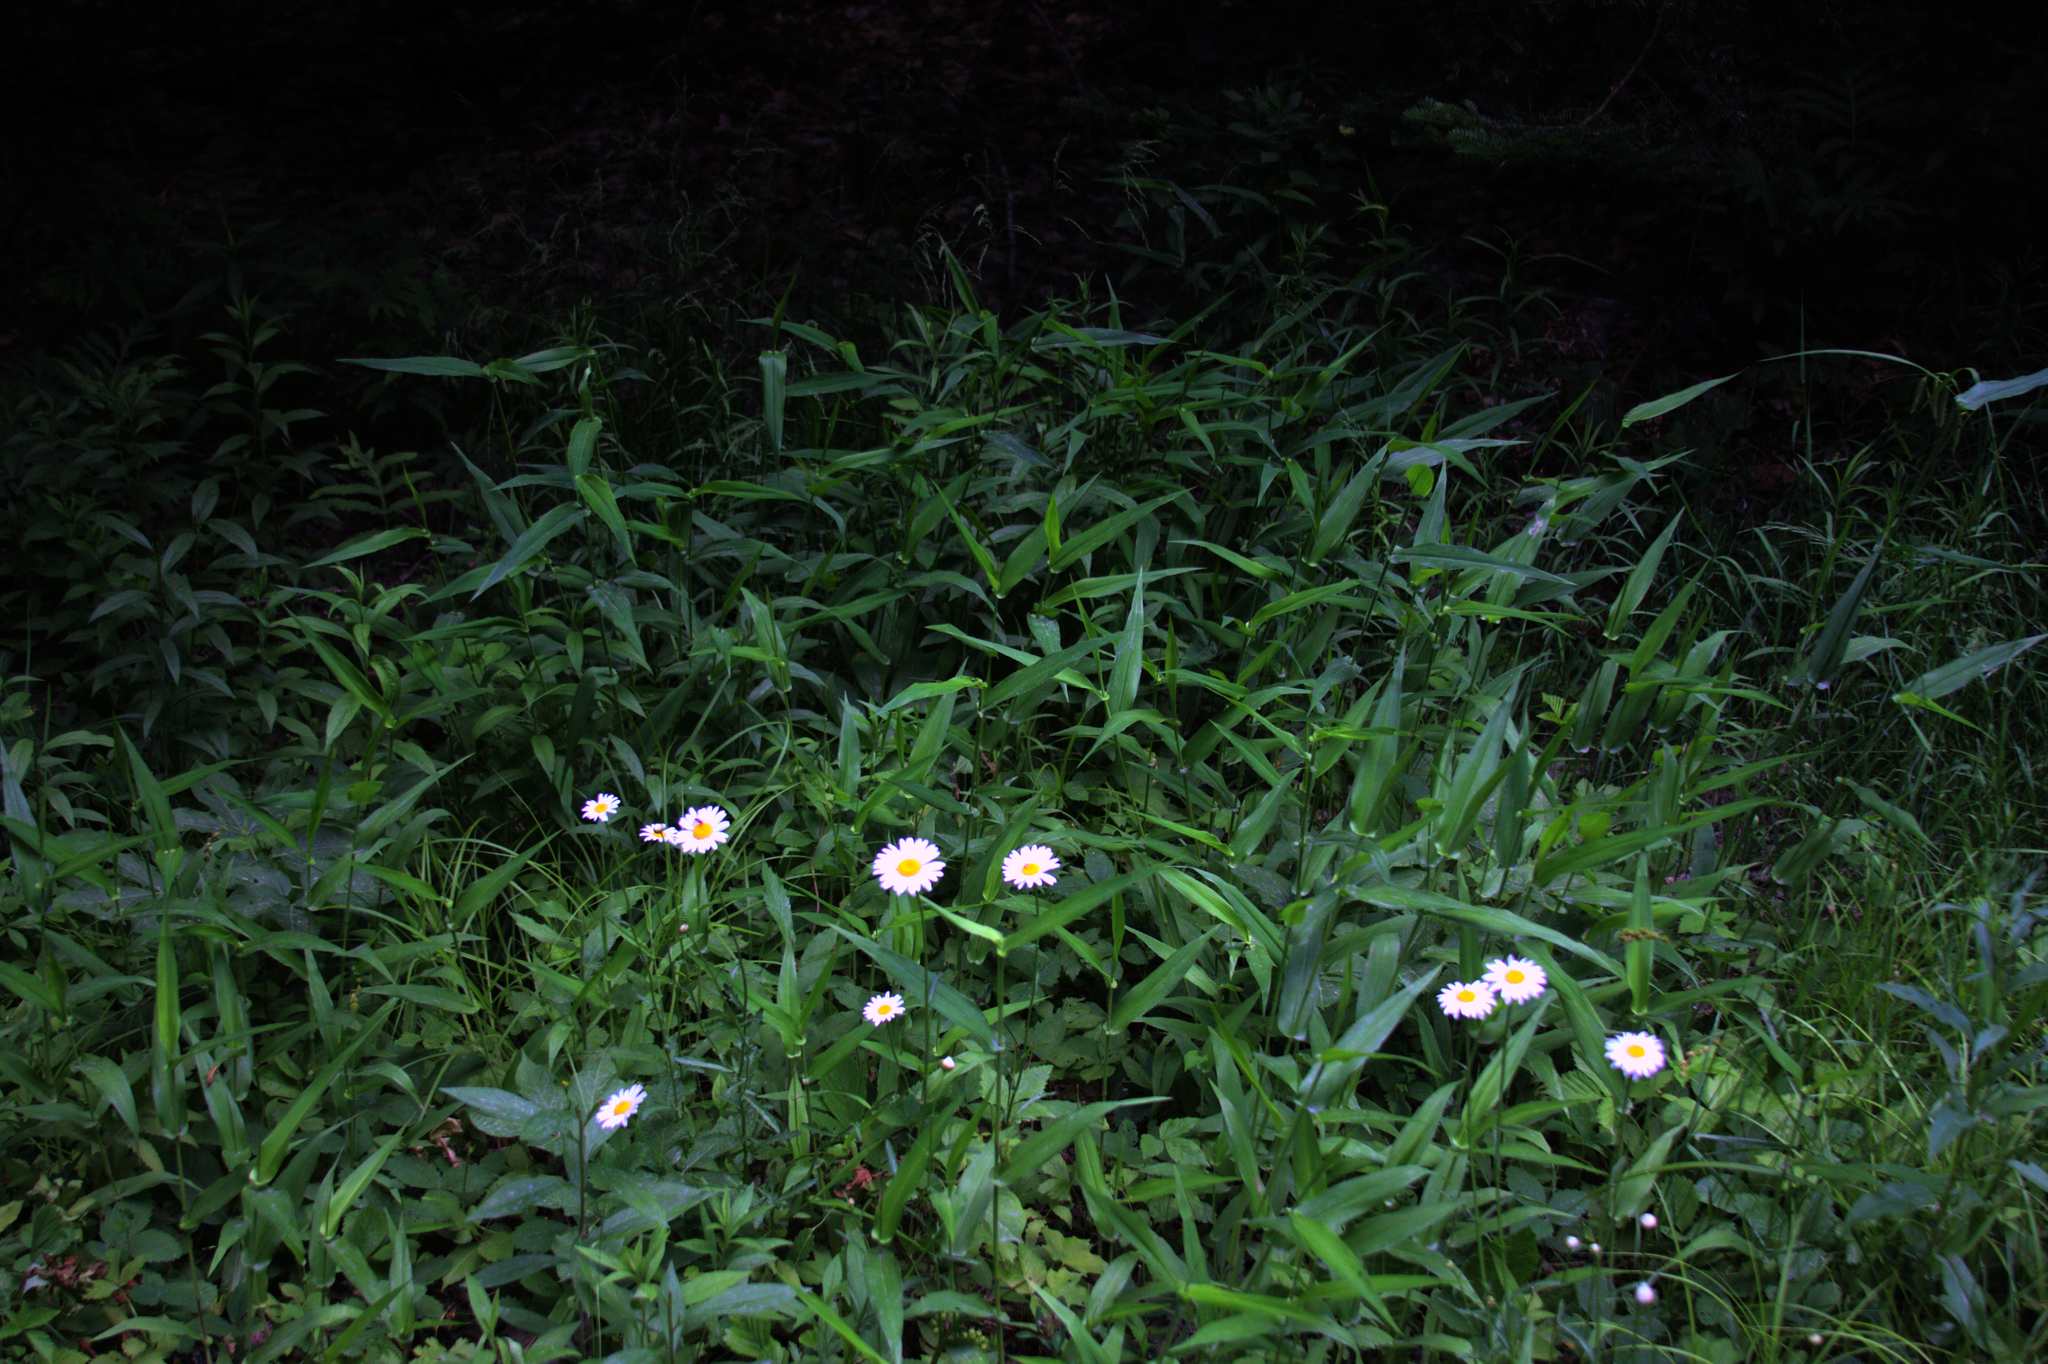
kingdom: Plantae
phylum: Tracheophyta
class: Magnoliopsida
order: Asterales
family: Asteraceae
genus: Leucanthemum
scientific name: Leucanthemum vulgare
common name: Oxeye daisy
